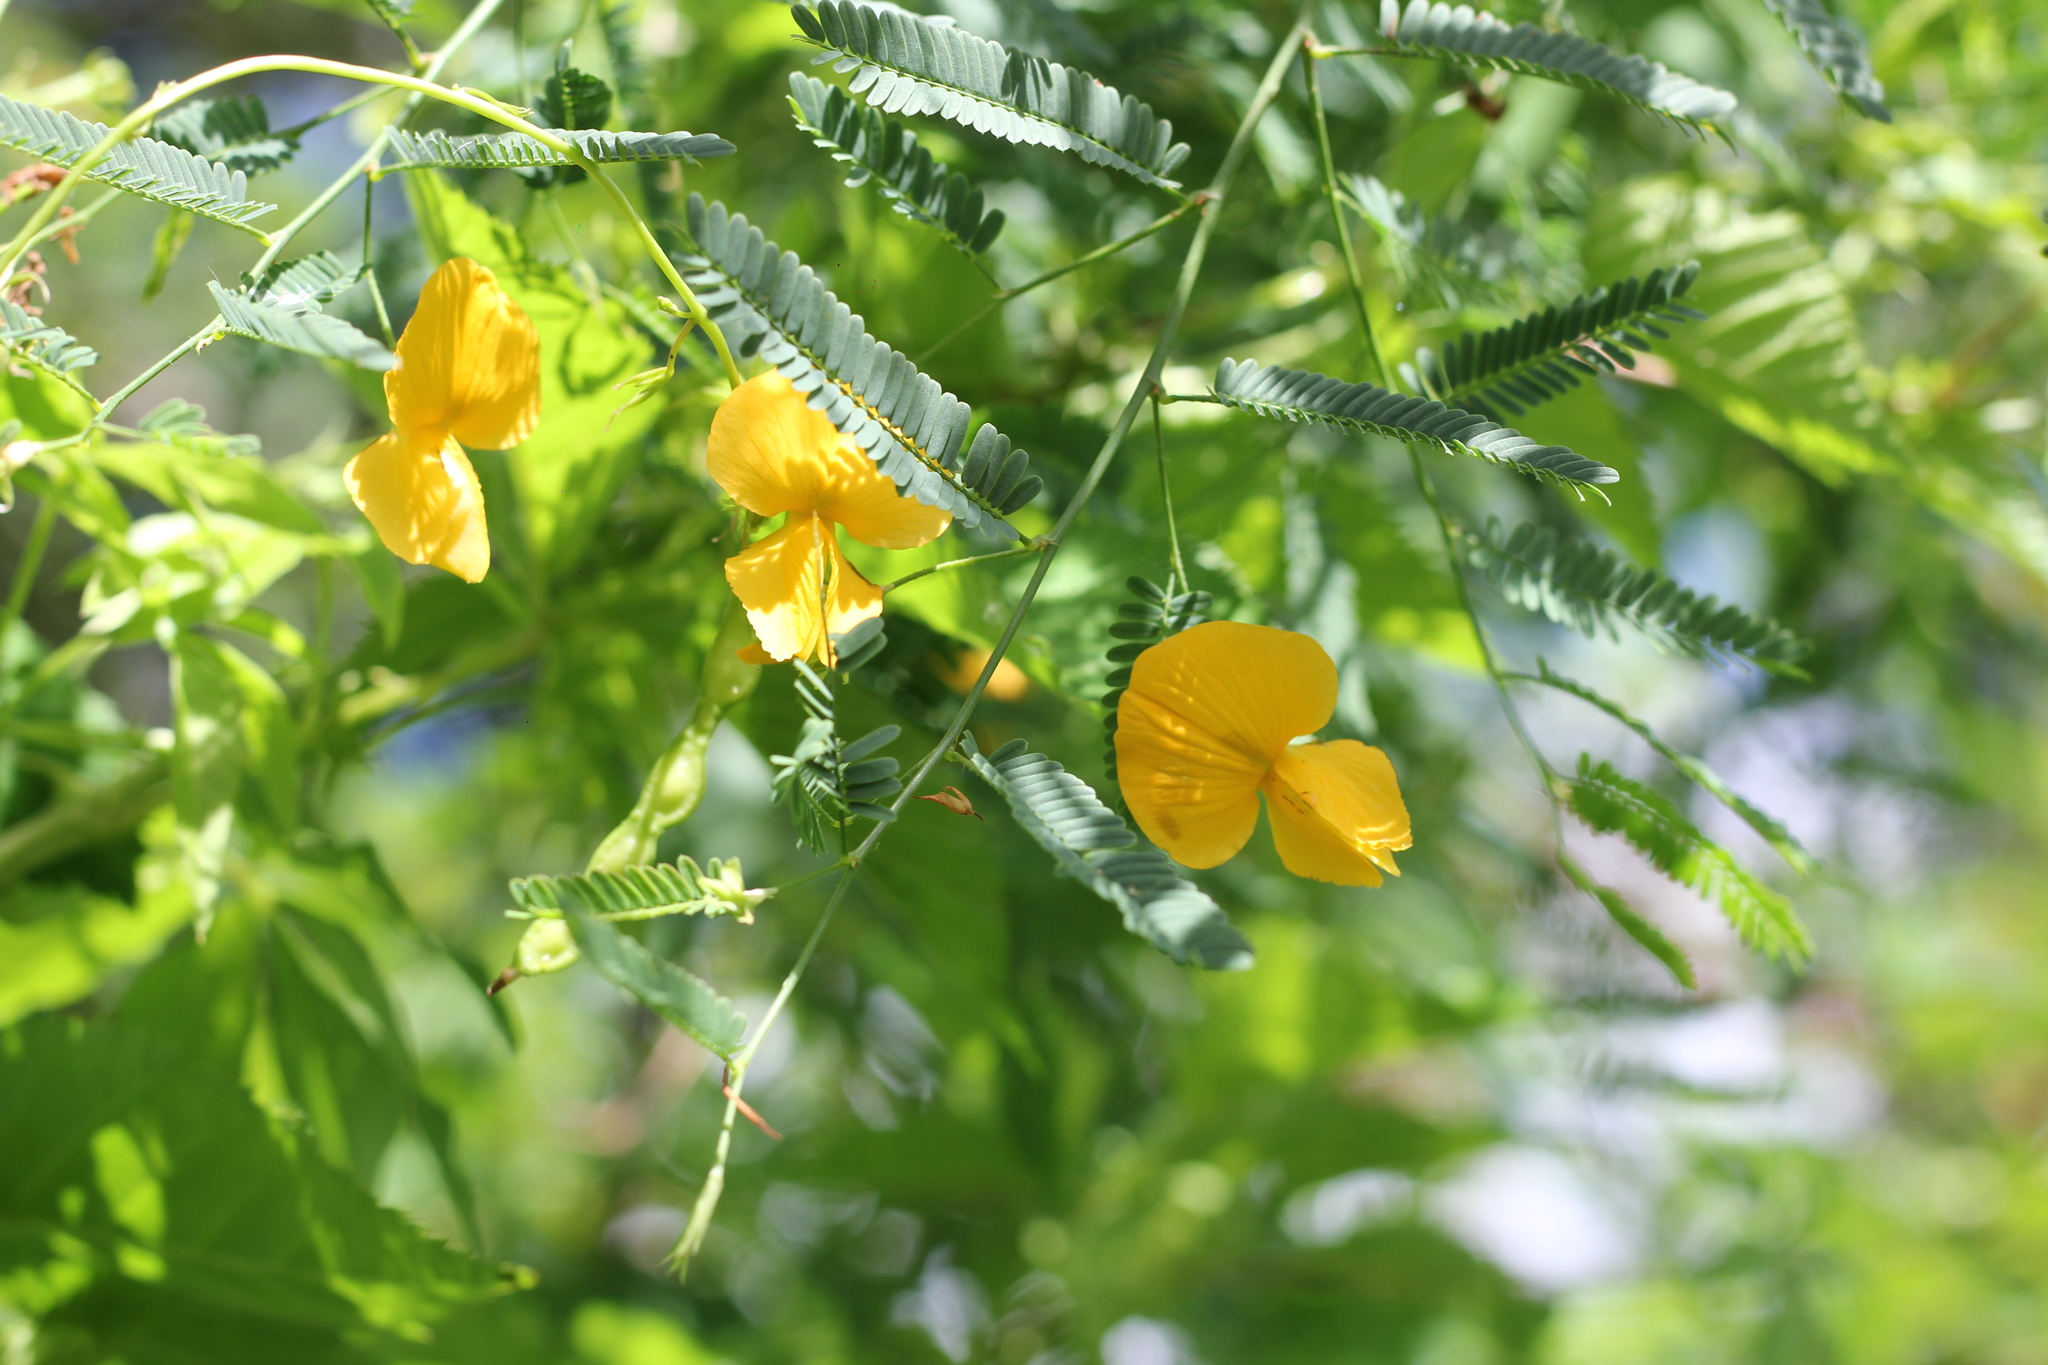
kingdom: Plantae
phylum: Tracheophyta
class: Magnoliopsida
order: Fabales
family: Fabaceae
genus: Aeschynomene
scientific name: Aeschynomene montevidensis
